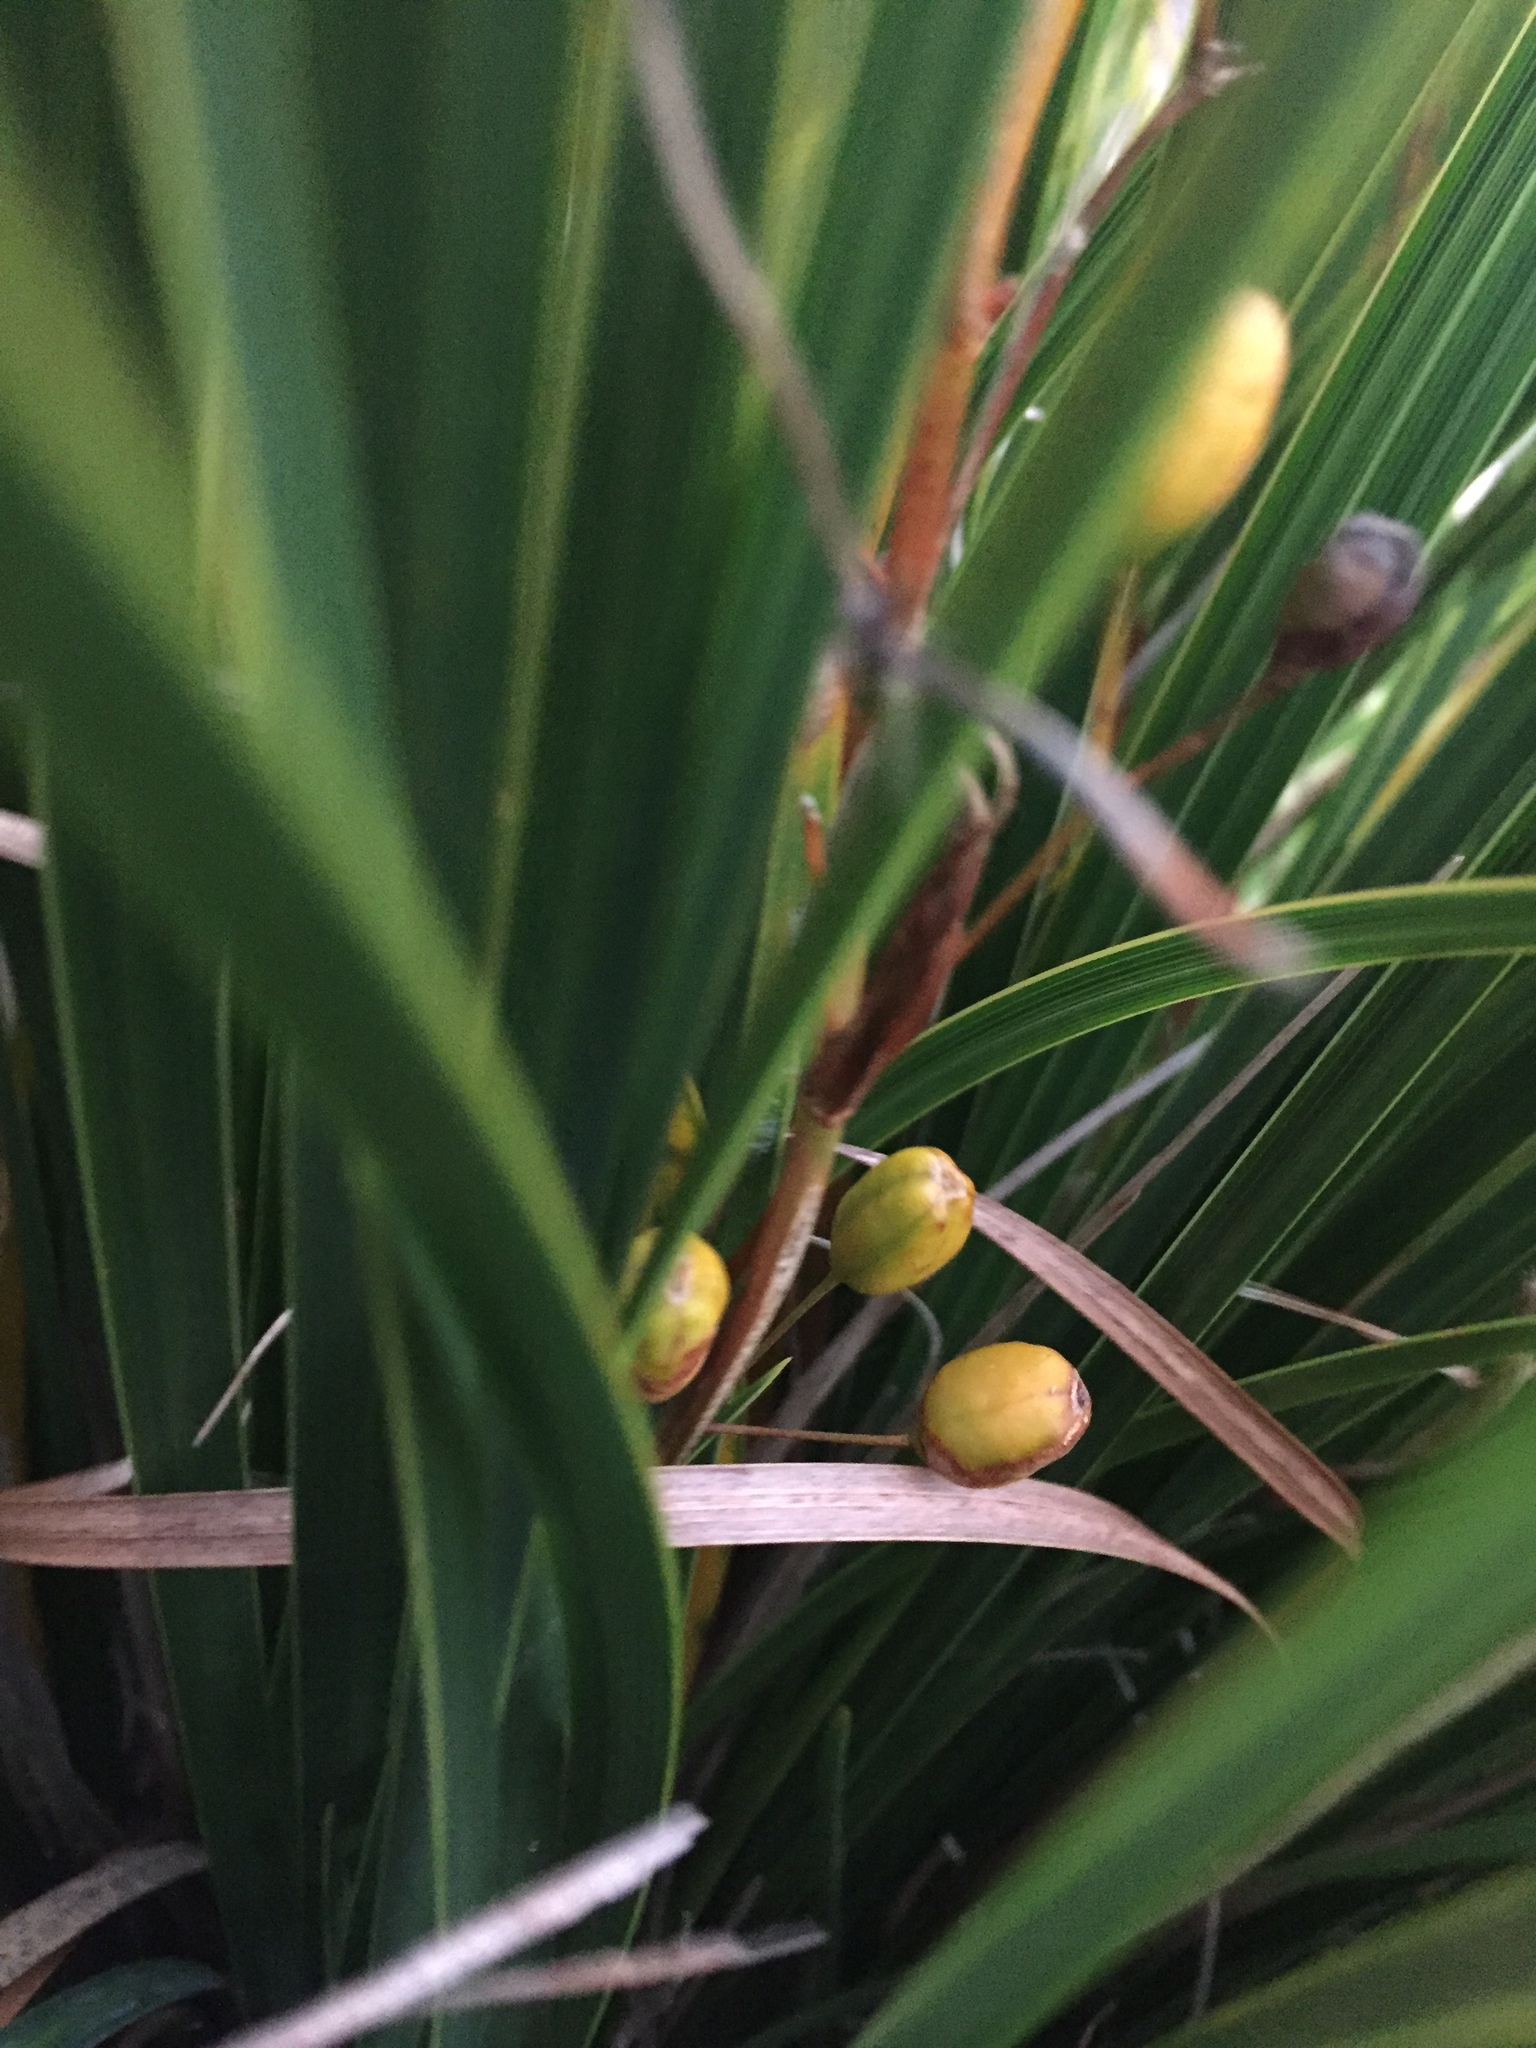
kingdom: Plantae
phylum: Tracheophyta
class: Liliopsida
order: Asparagales
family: Iridaceae
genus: Libertia
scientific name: Libertia ixioides
